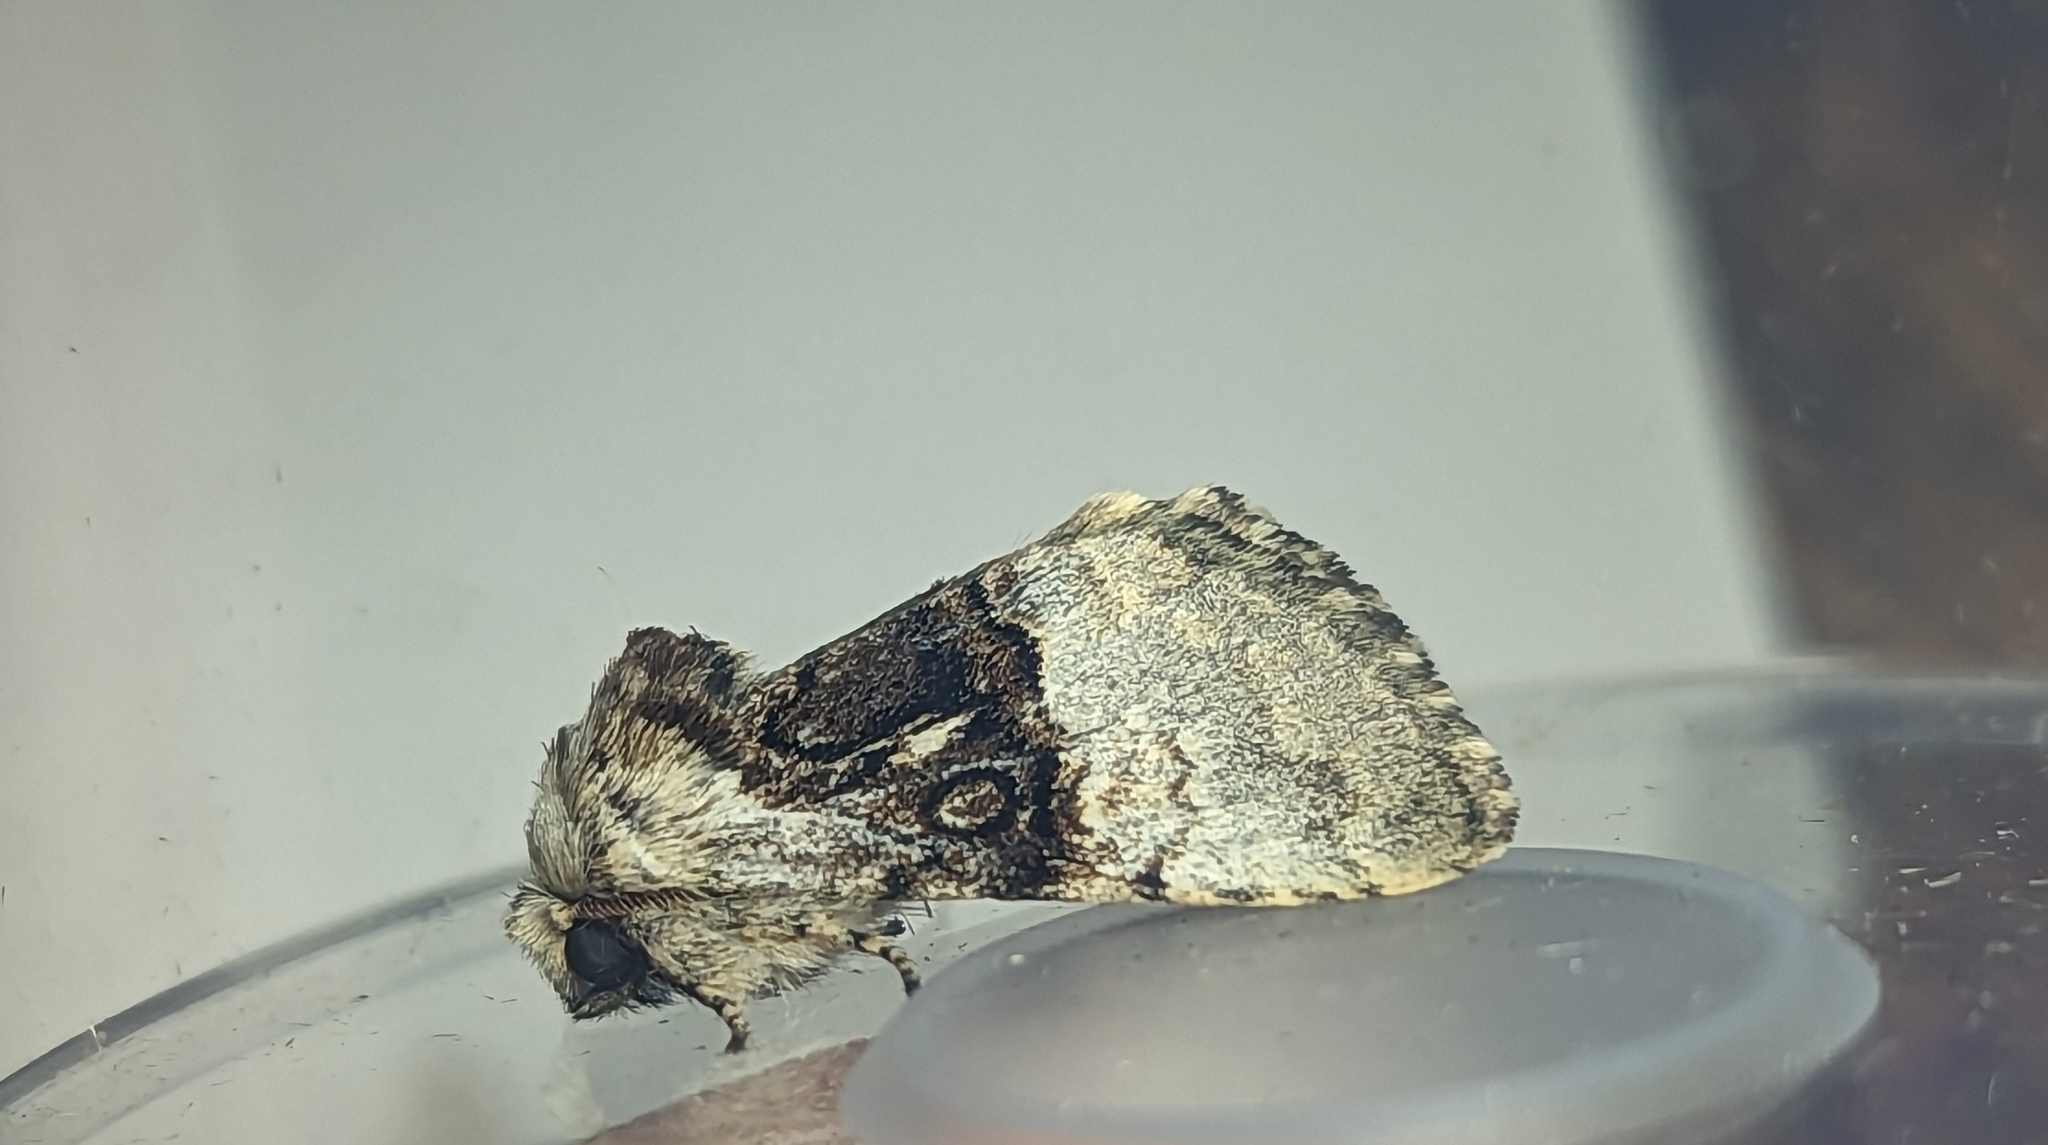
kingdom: Animalia
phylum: Arthropoda
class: Insecta
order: Lepidoptera
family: Noctuidae
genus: Colocasia
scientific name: Colocasia coryli
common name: Nut-tree tussock
